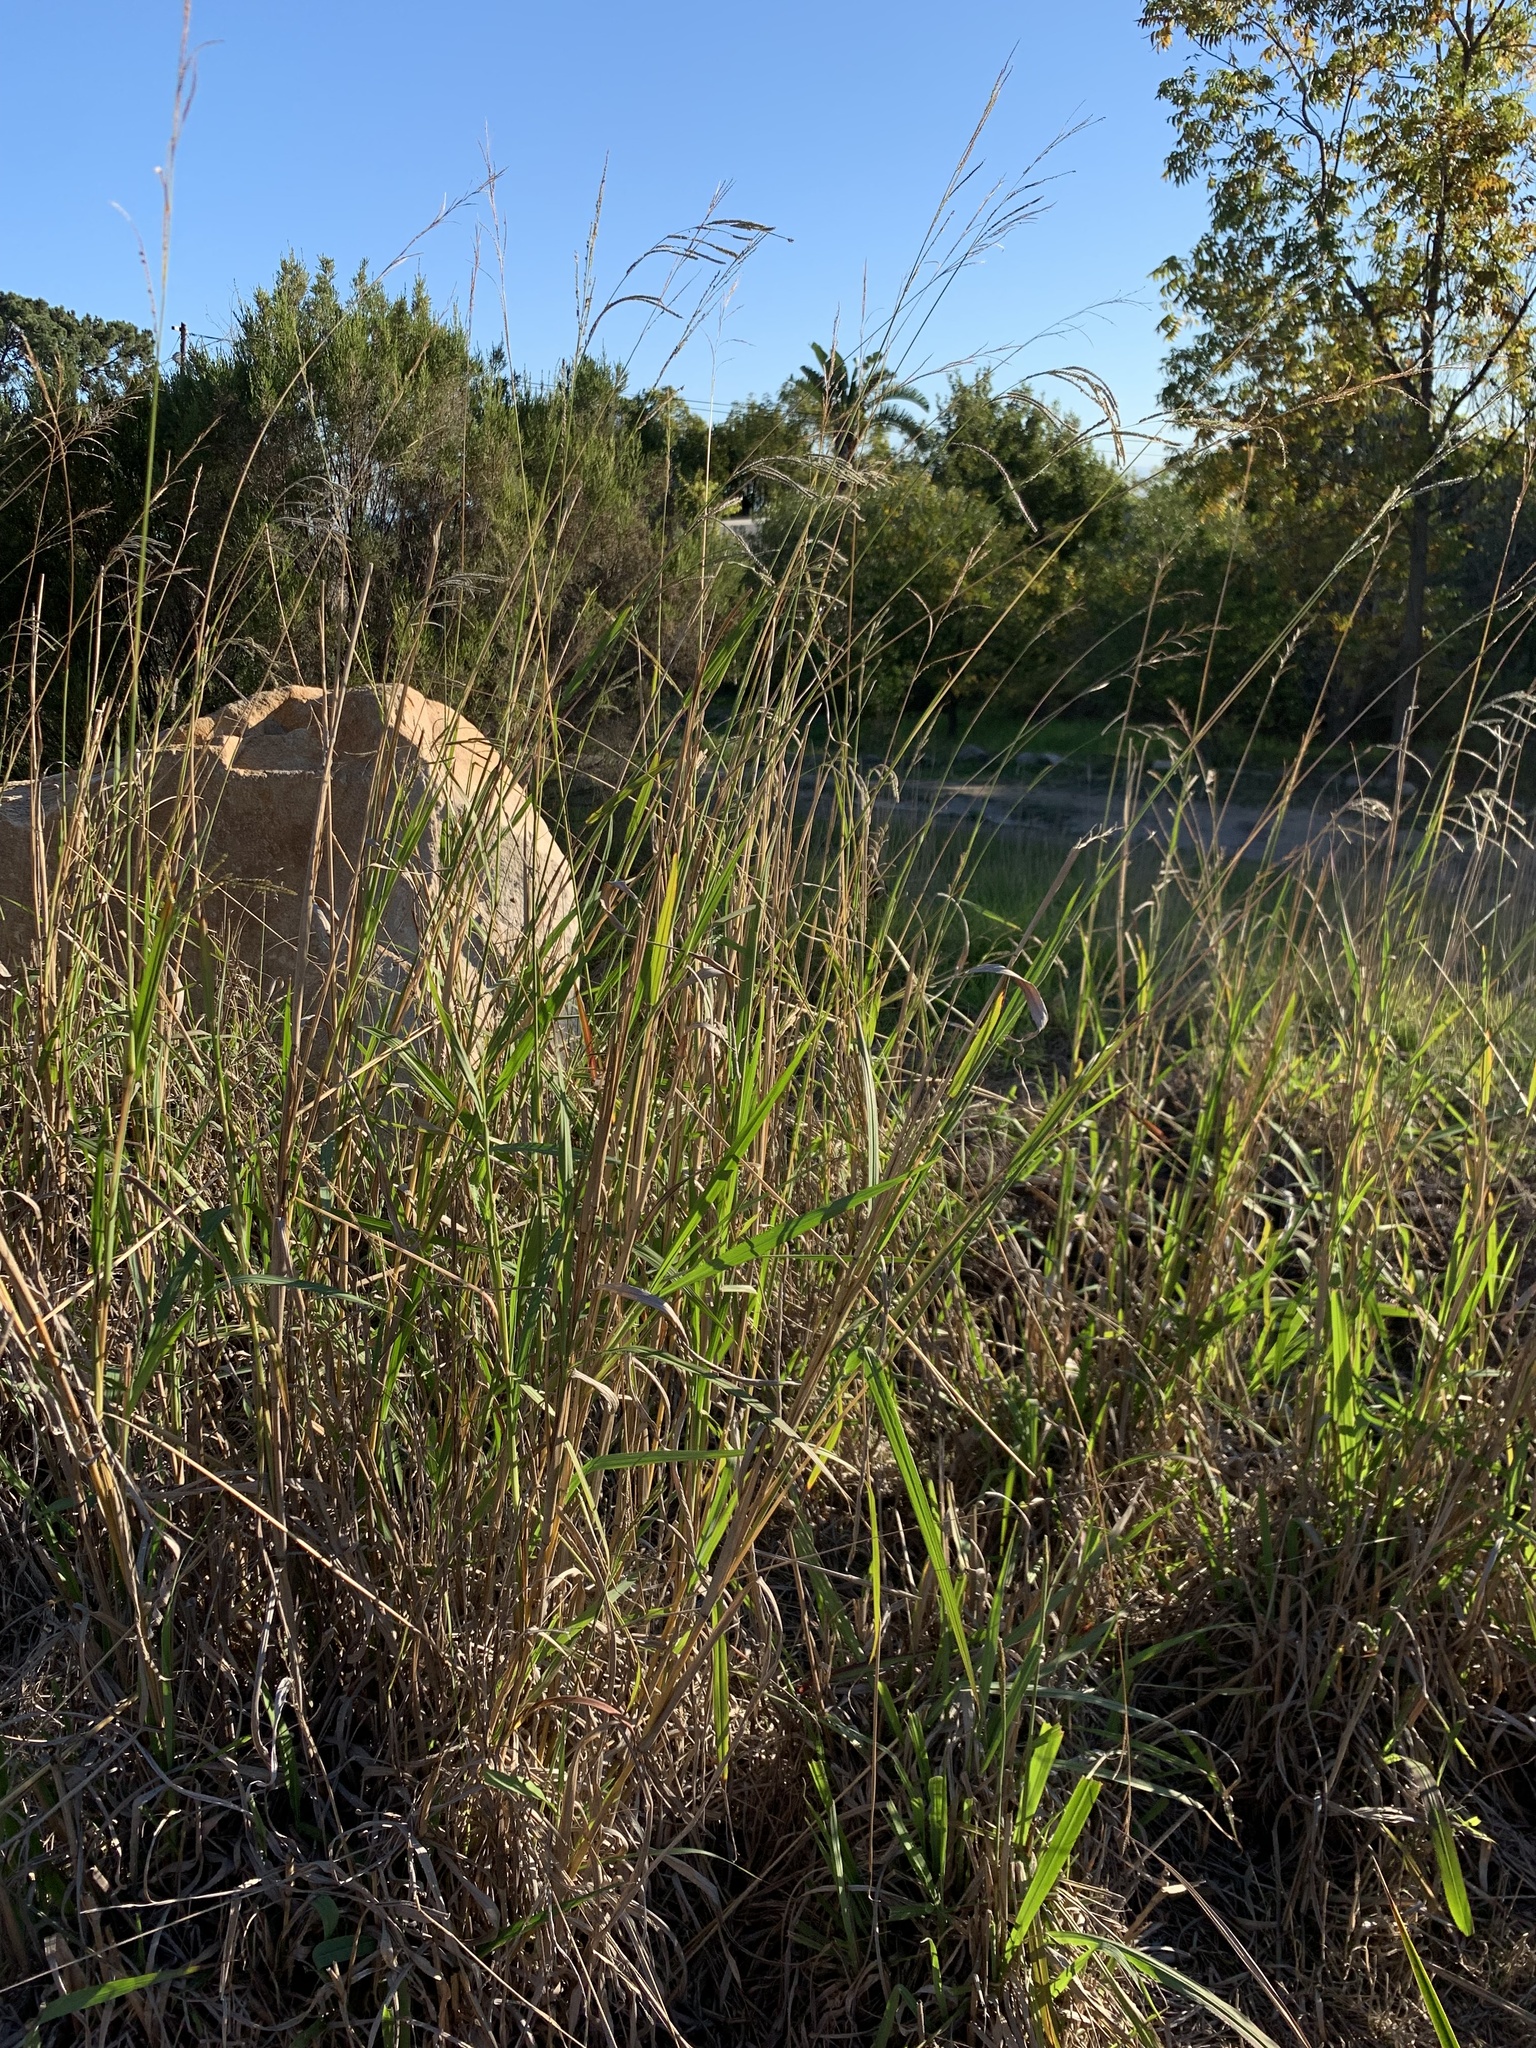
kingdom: Plantae
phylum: Tracheophyta
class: Liliopsida
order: Poales
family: Poaceae
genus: Paspalum
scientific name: Paspalum urvillei
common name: Vasey's grass
